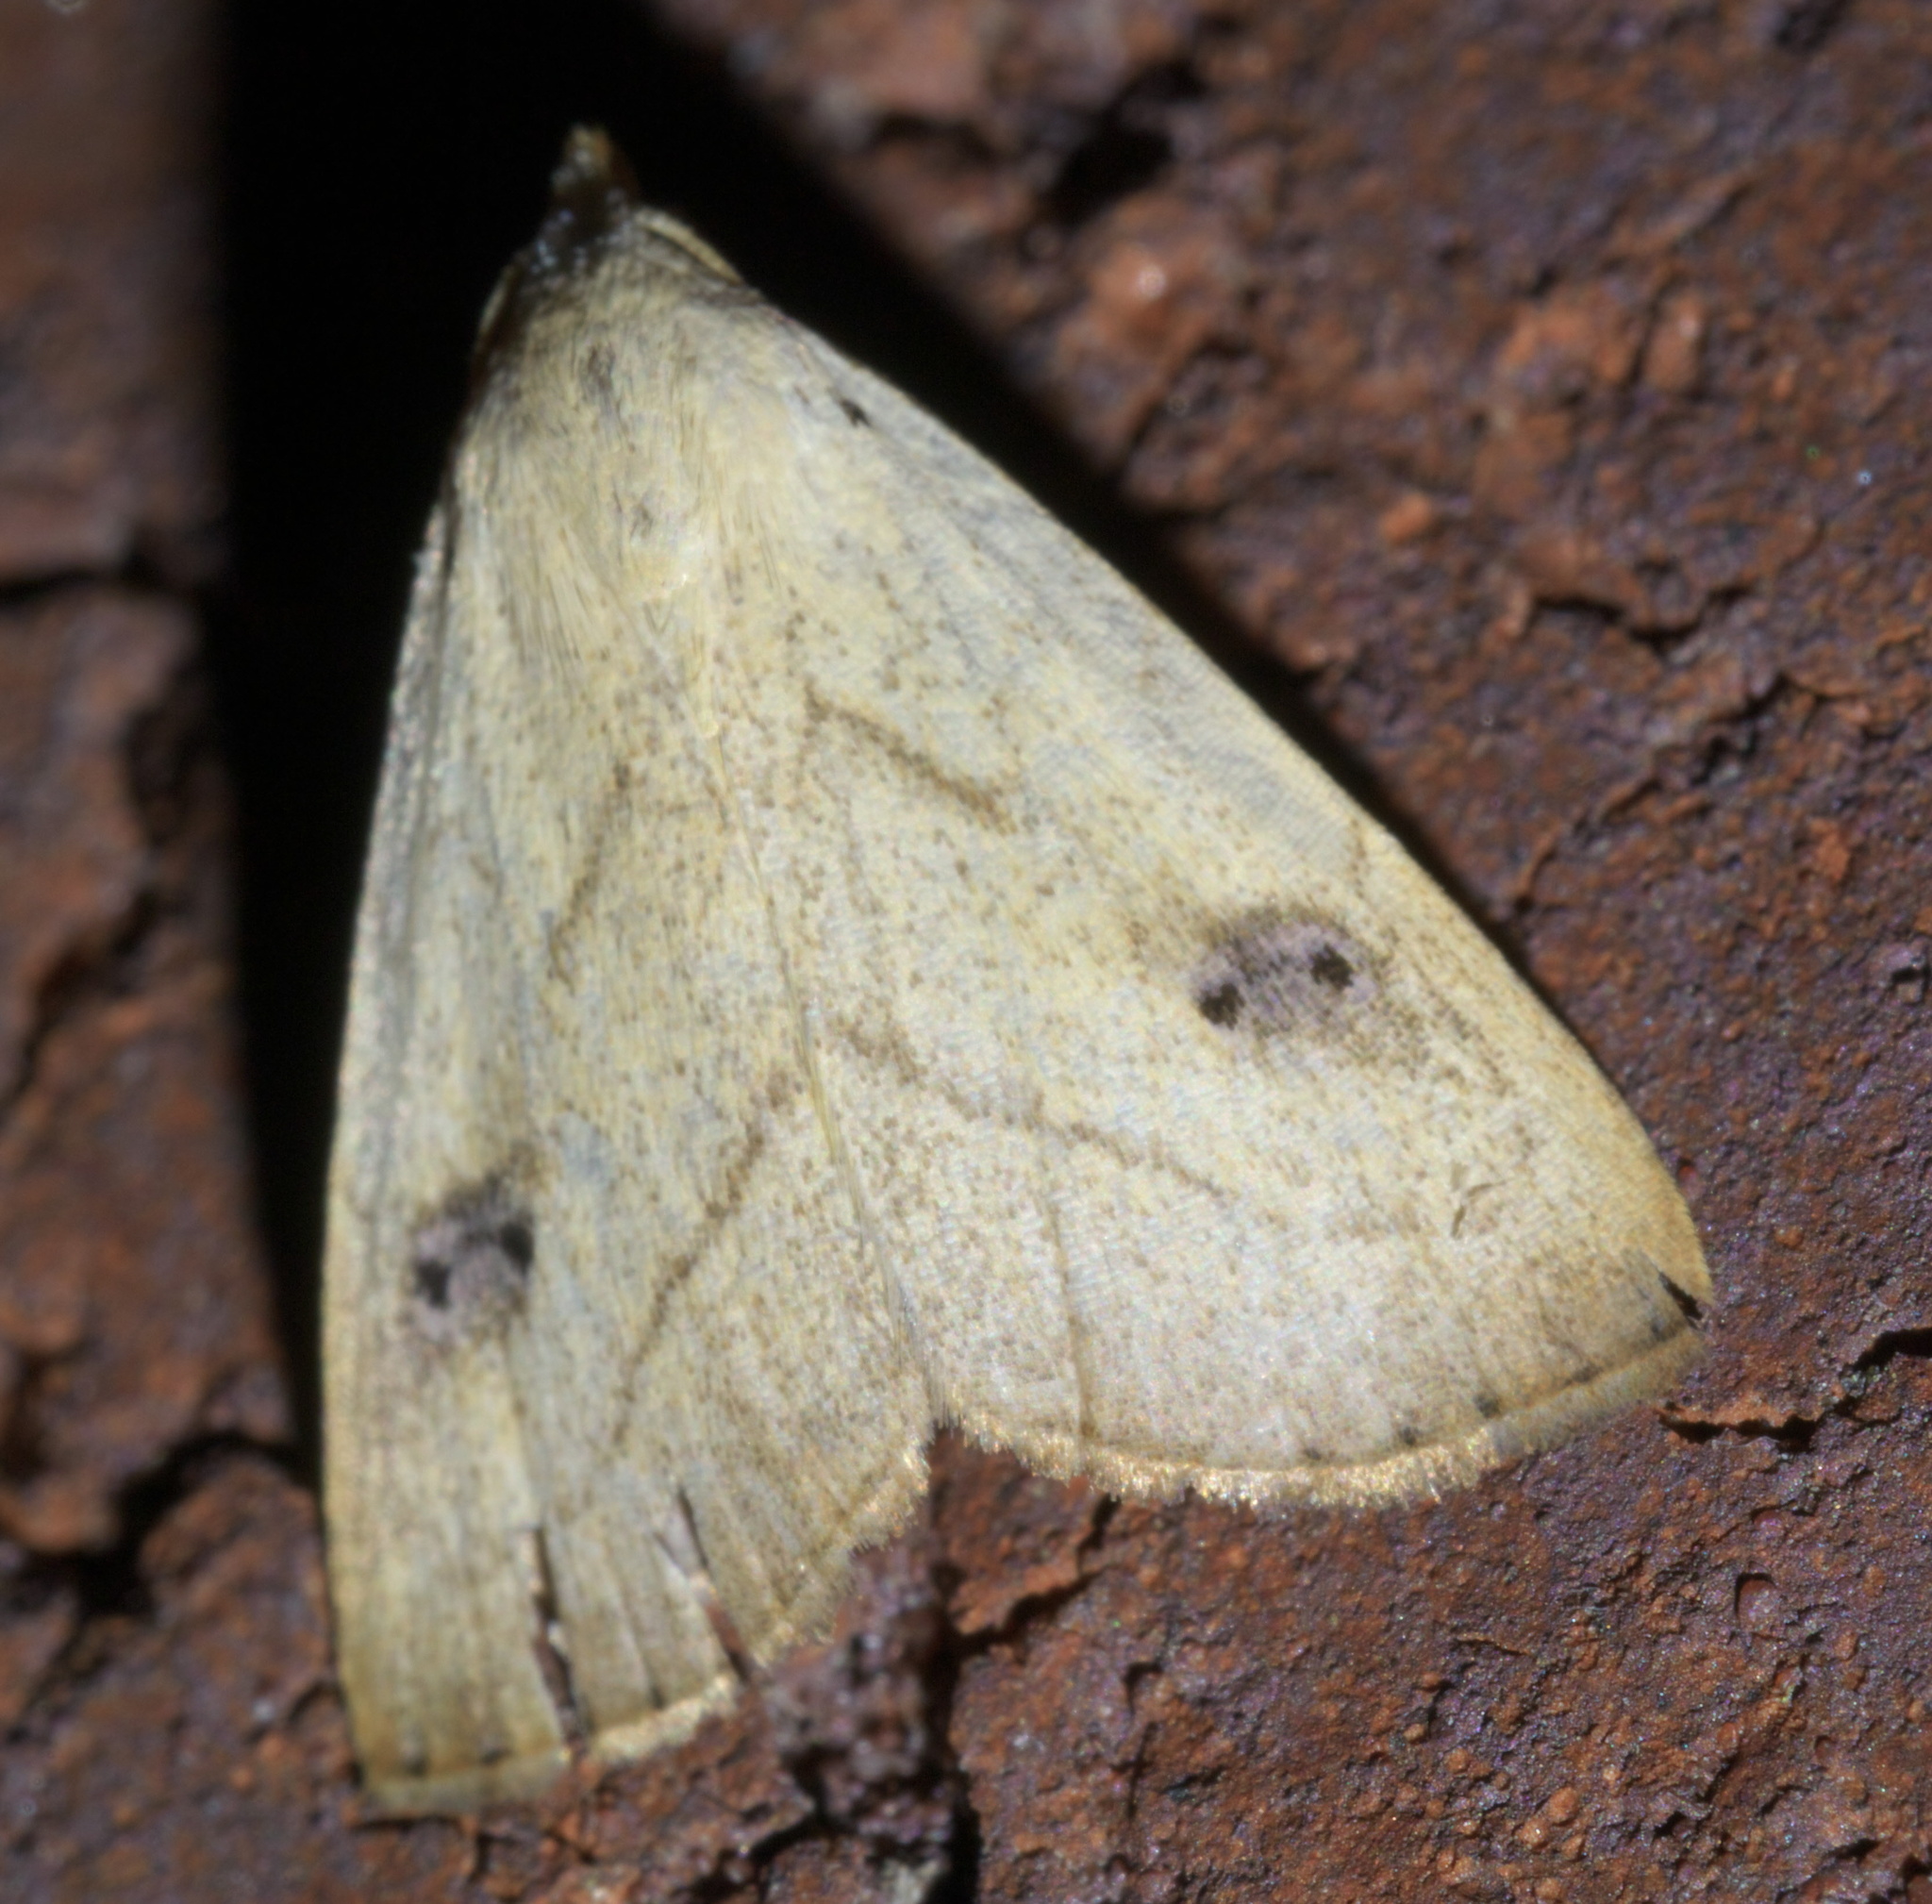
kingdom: Animalia
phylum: Arthropoda
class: Insecta
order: Lepidoptera
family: Erebidae
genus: Rivula
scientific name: Rivula propinqualis
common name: Spotted grass moth
